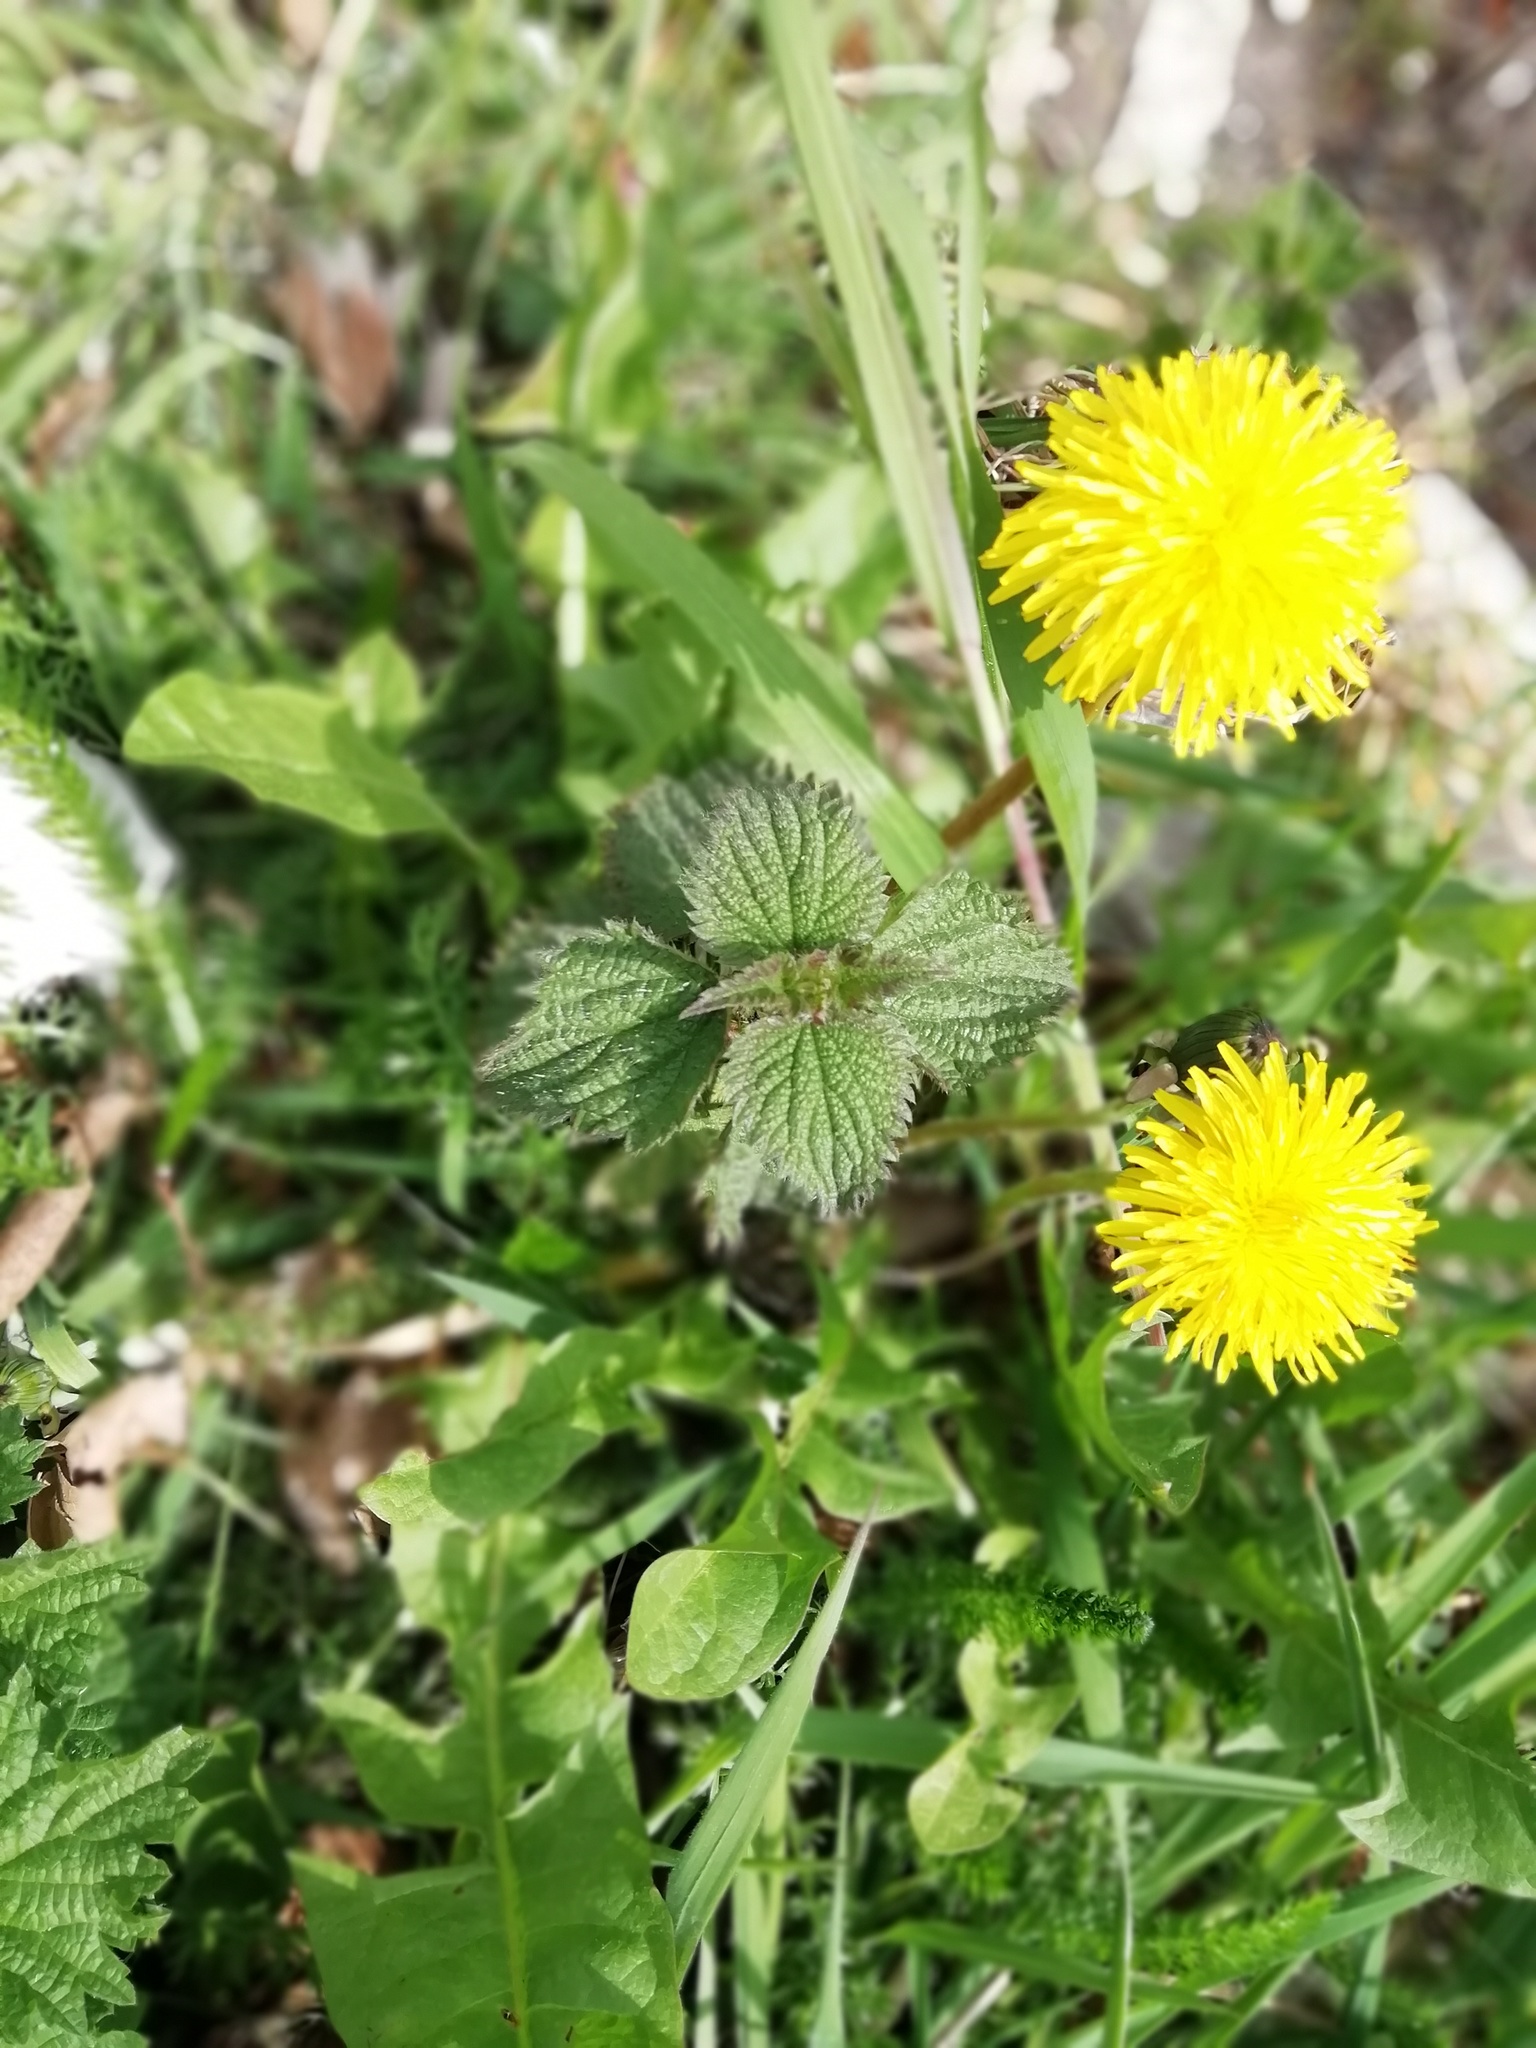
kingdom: Plantae
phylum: Tracheophyta
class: Magnoliopsida
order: Rosales
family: Urticaceae
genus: Urtica
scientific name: Urtica dioica
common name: Common nettle
